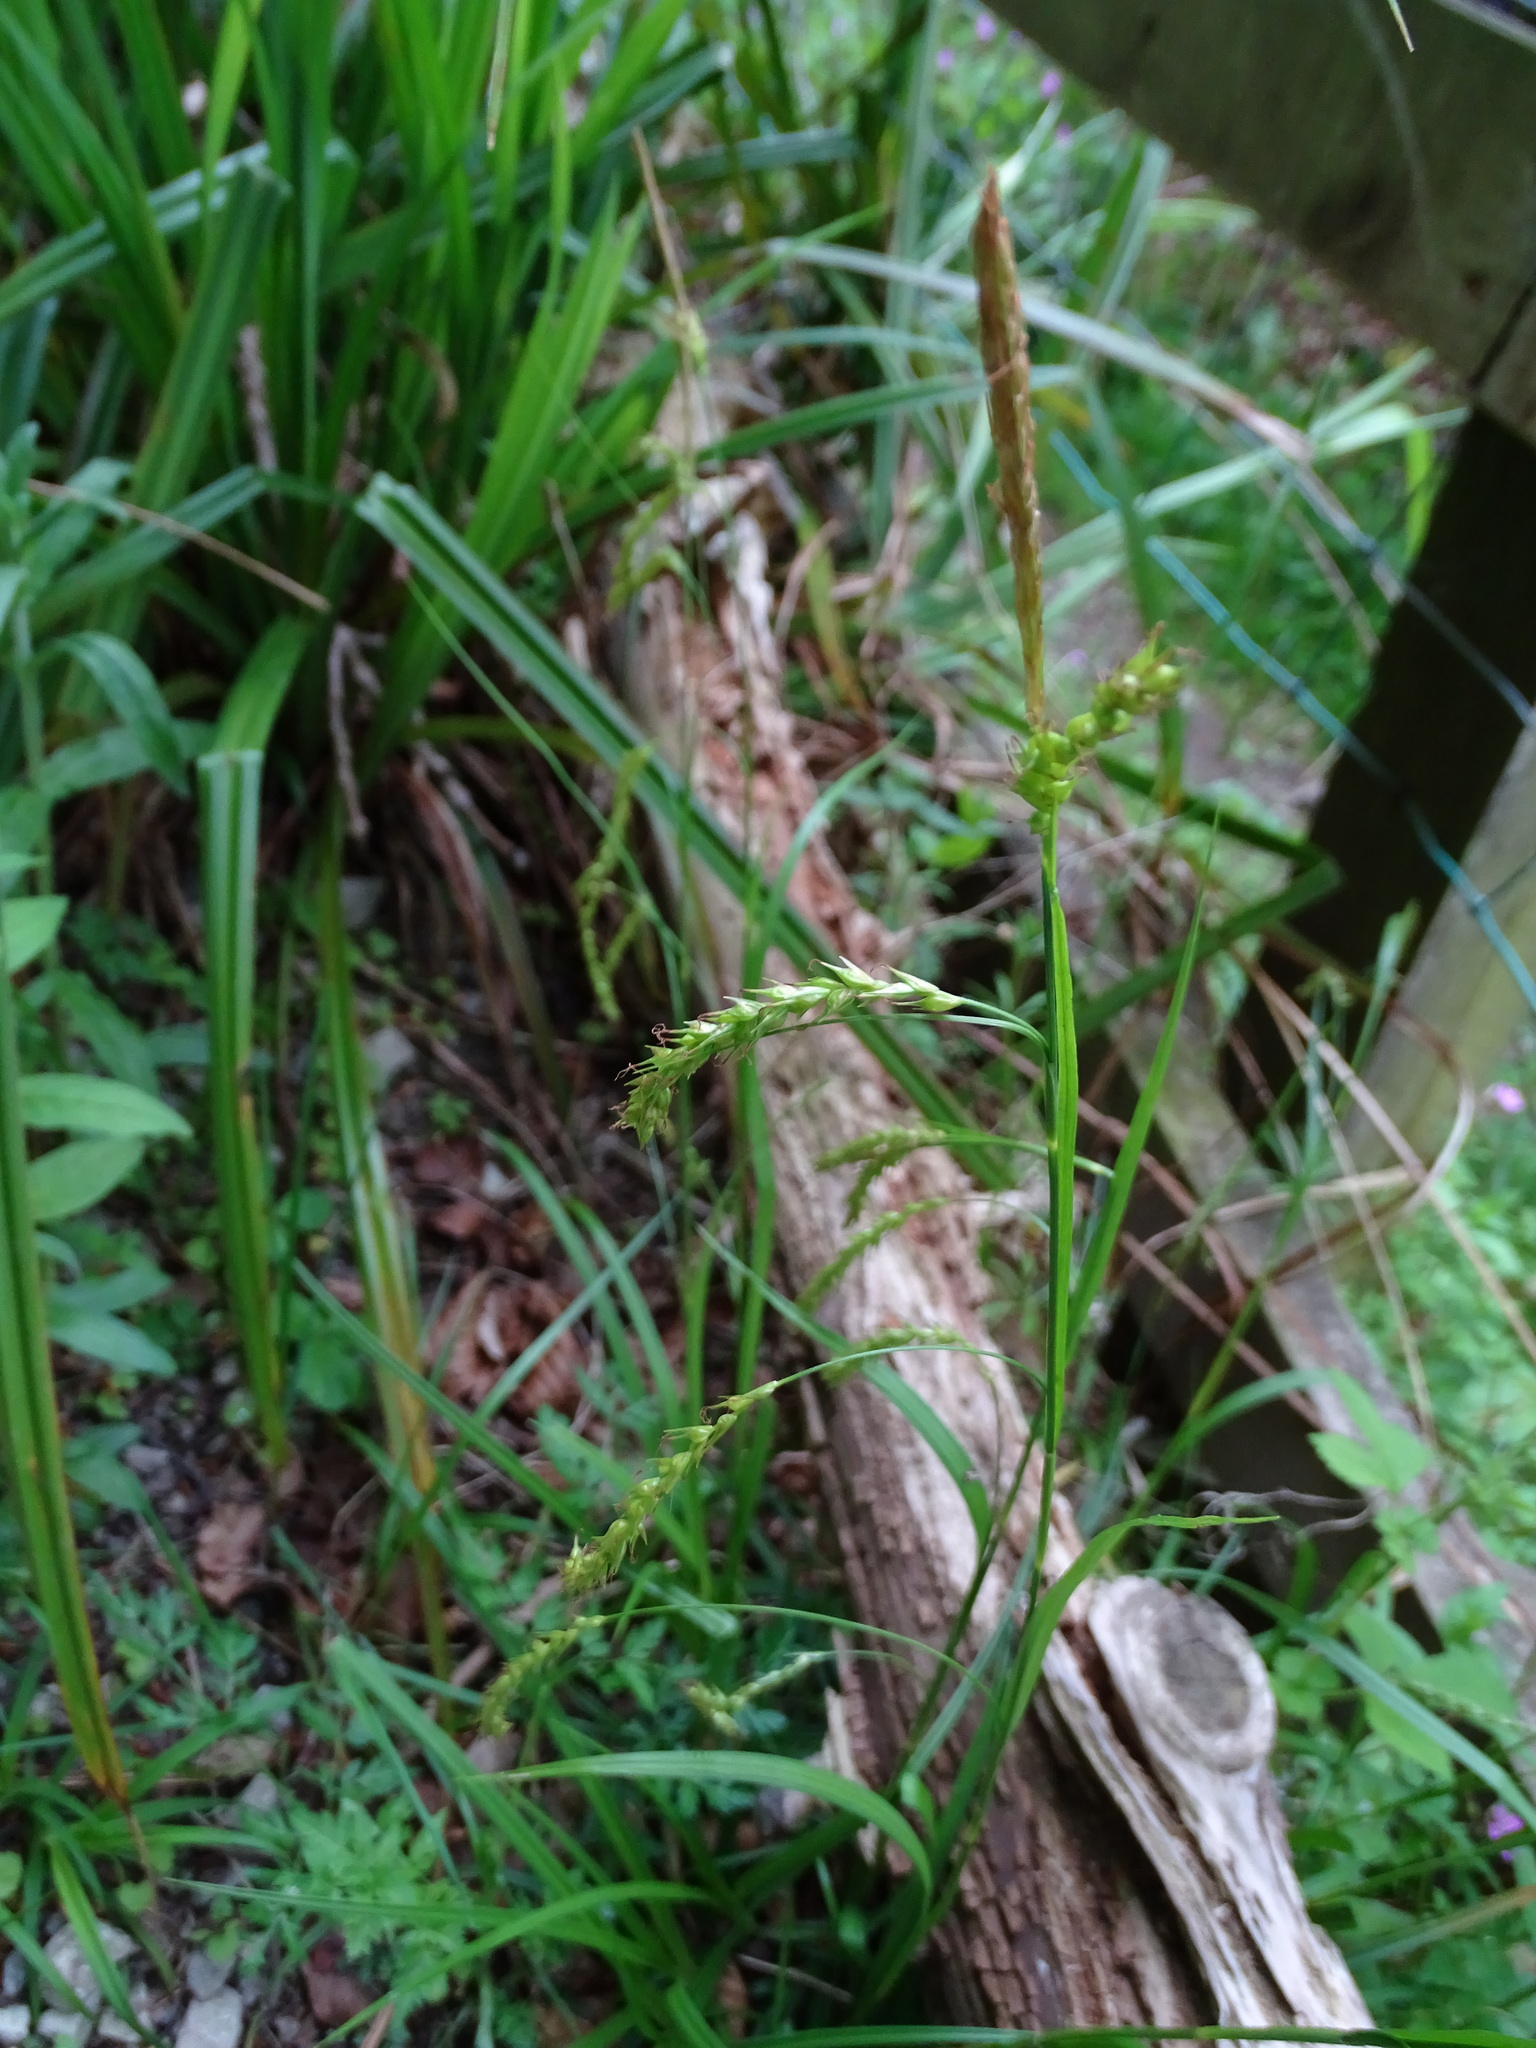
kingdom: Plantae
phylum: Tracheophyta
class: Liliopsida
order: Poales
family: Cyperaceae
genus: Carex
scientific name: Carex sylvatica
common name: Wood-sedge
